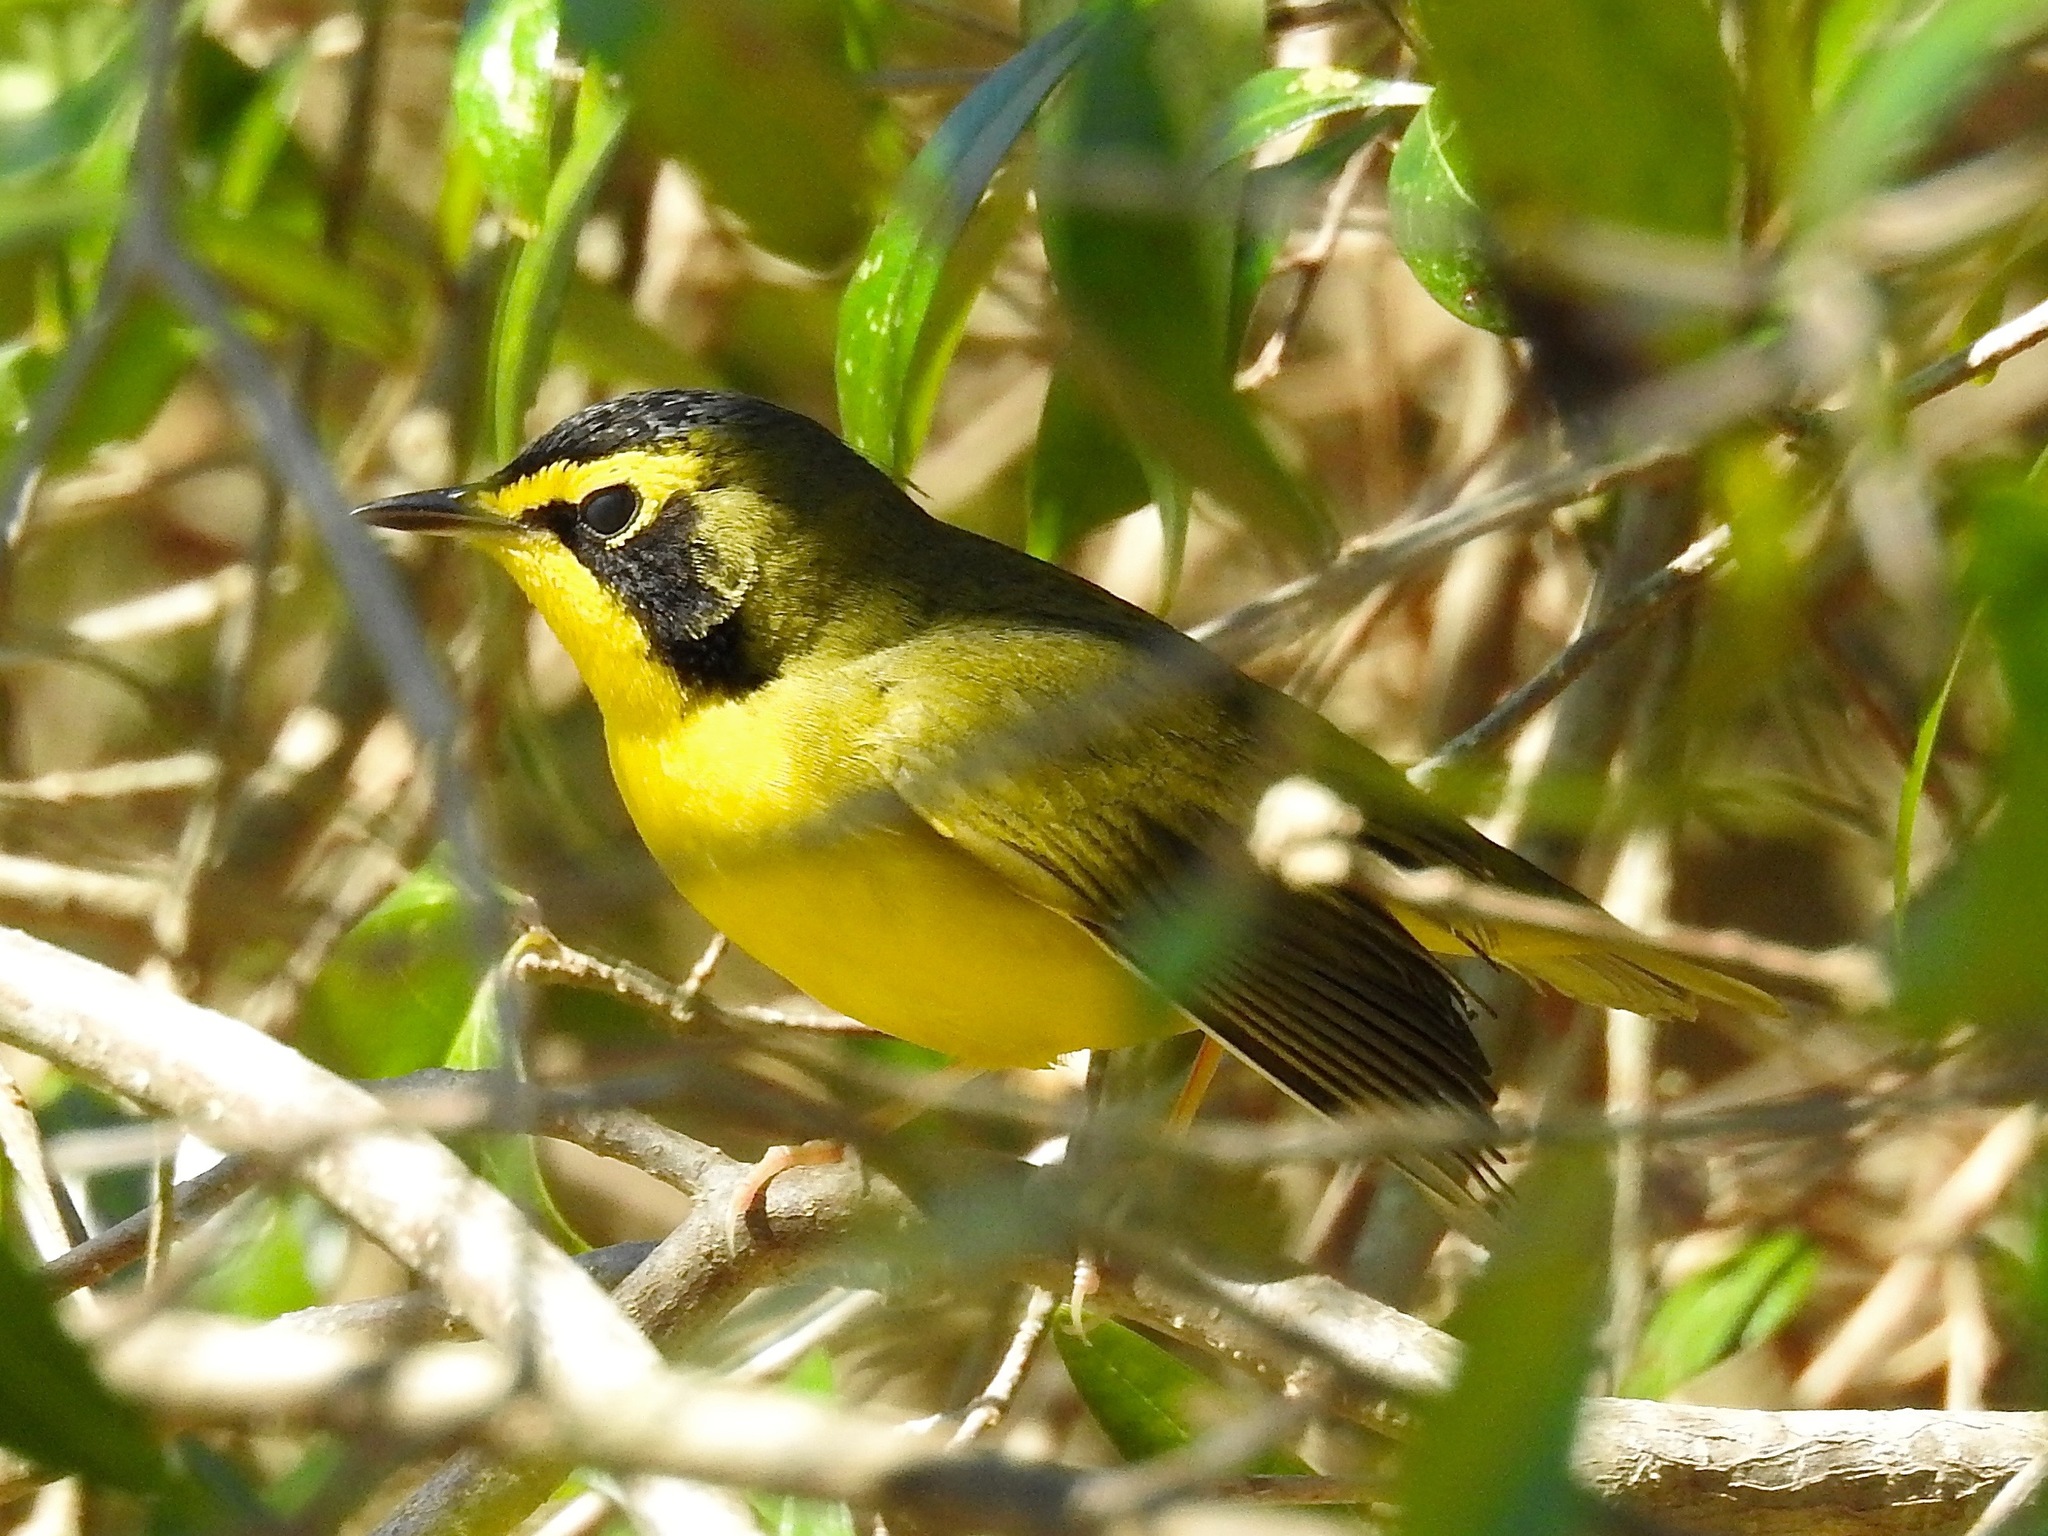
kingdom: Animalia
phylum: Chordata
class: Aves
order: Passeriformes
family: Parulidae
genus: Geothlypis
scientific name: Geothlypis formosa
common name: Kentucky warbler
